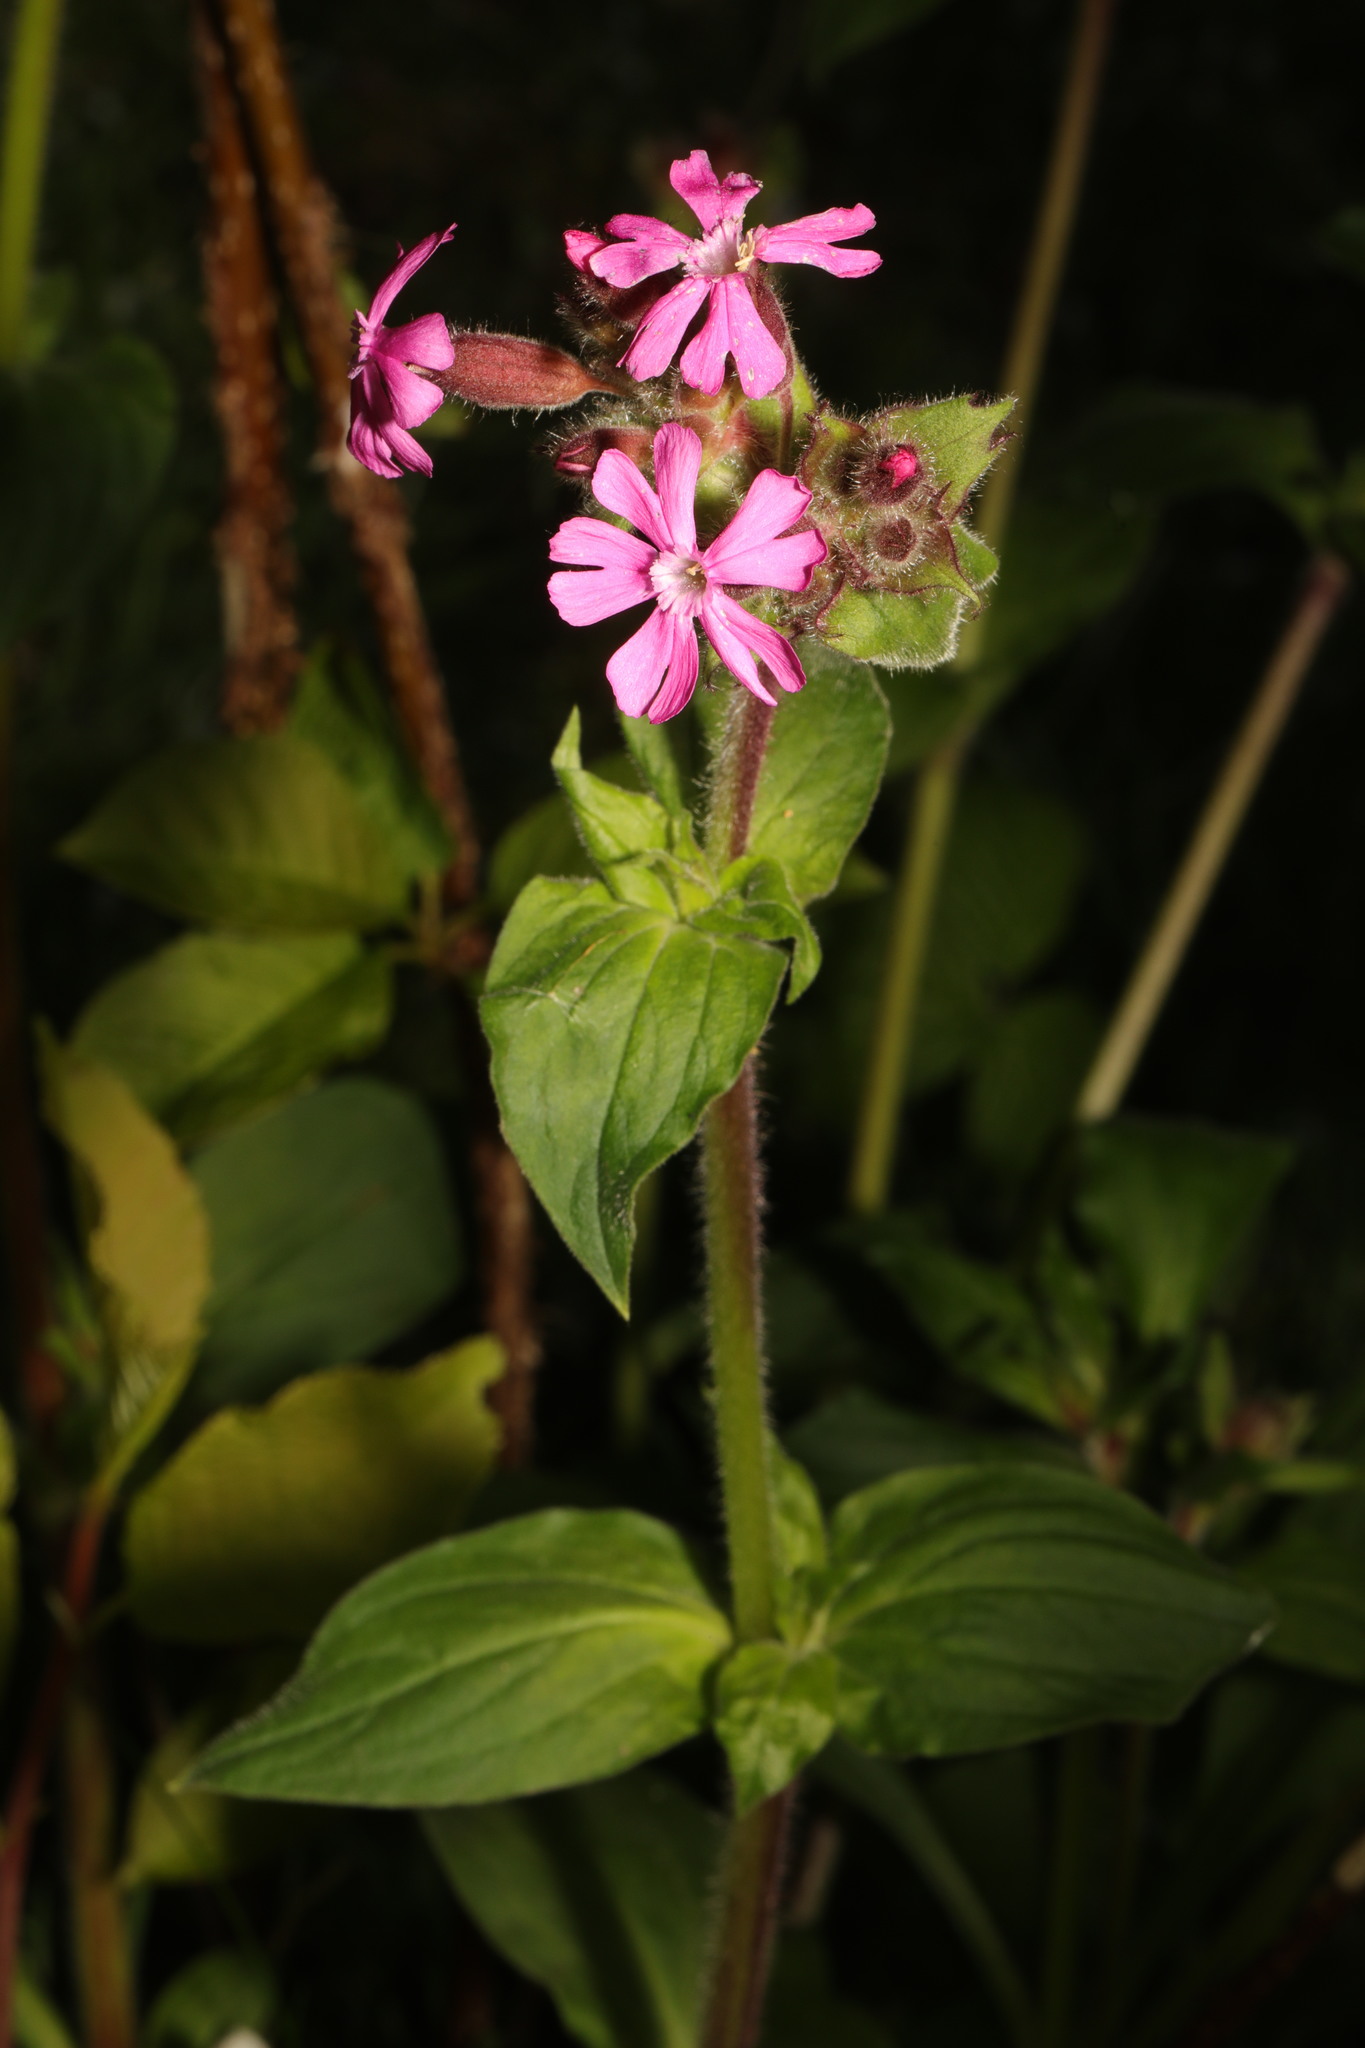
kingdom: Plantae
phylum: Tracheophyta
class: Magnoliopsida
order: Caryophyllales
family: Caryophyllaceae
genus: Silene
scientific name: Silene dioica
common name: Red campion
